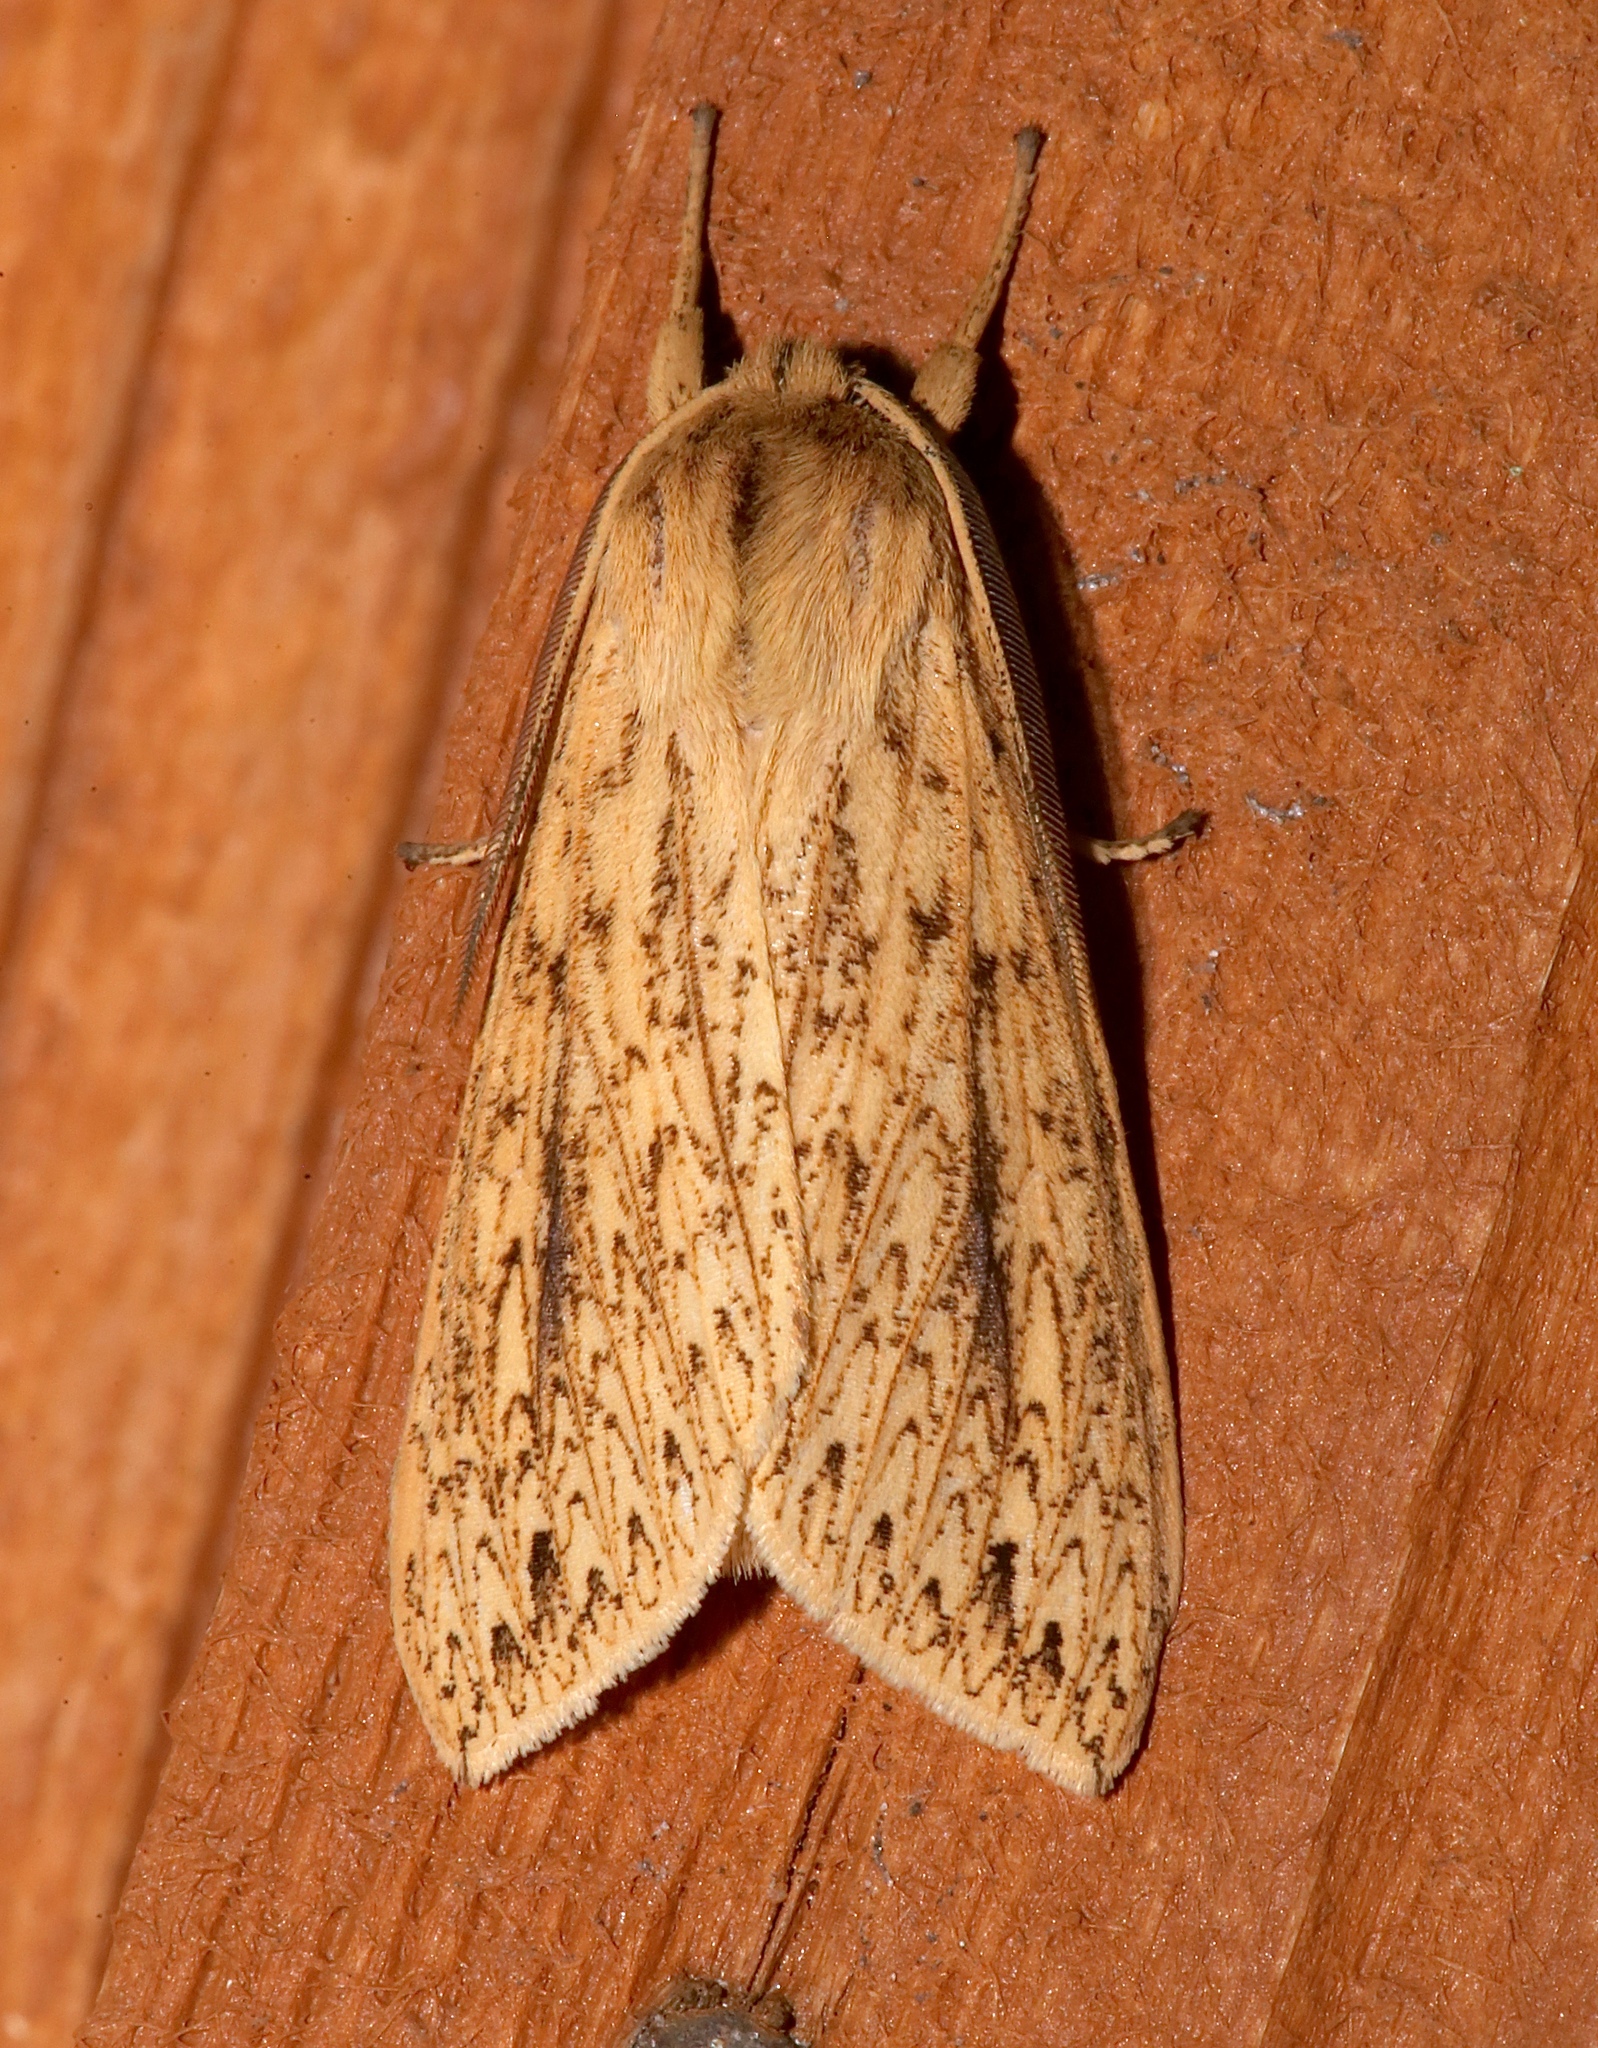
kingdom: Animalia
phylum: Arthropoda
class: Insecta
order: Lepidoptera
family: Erebidae
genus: Leucanopsis
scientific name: Leucanopsis longa
